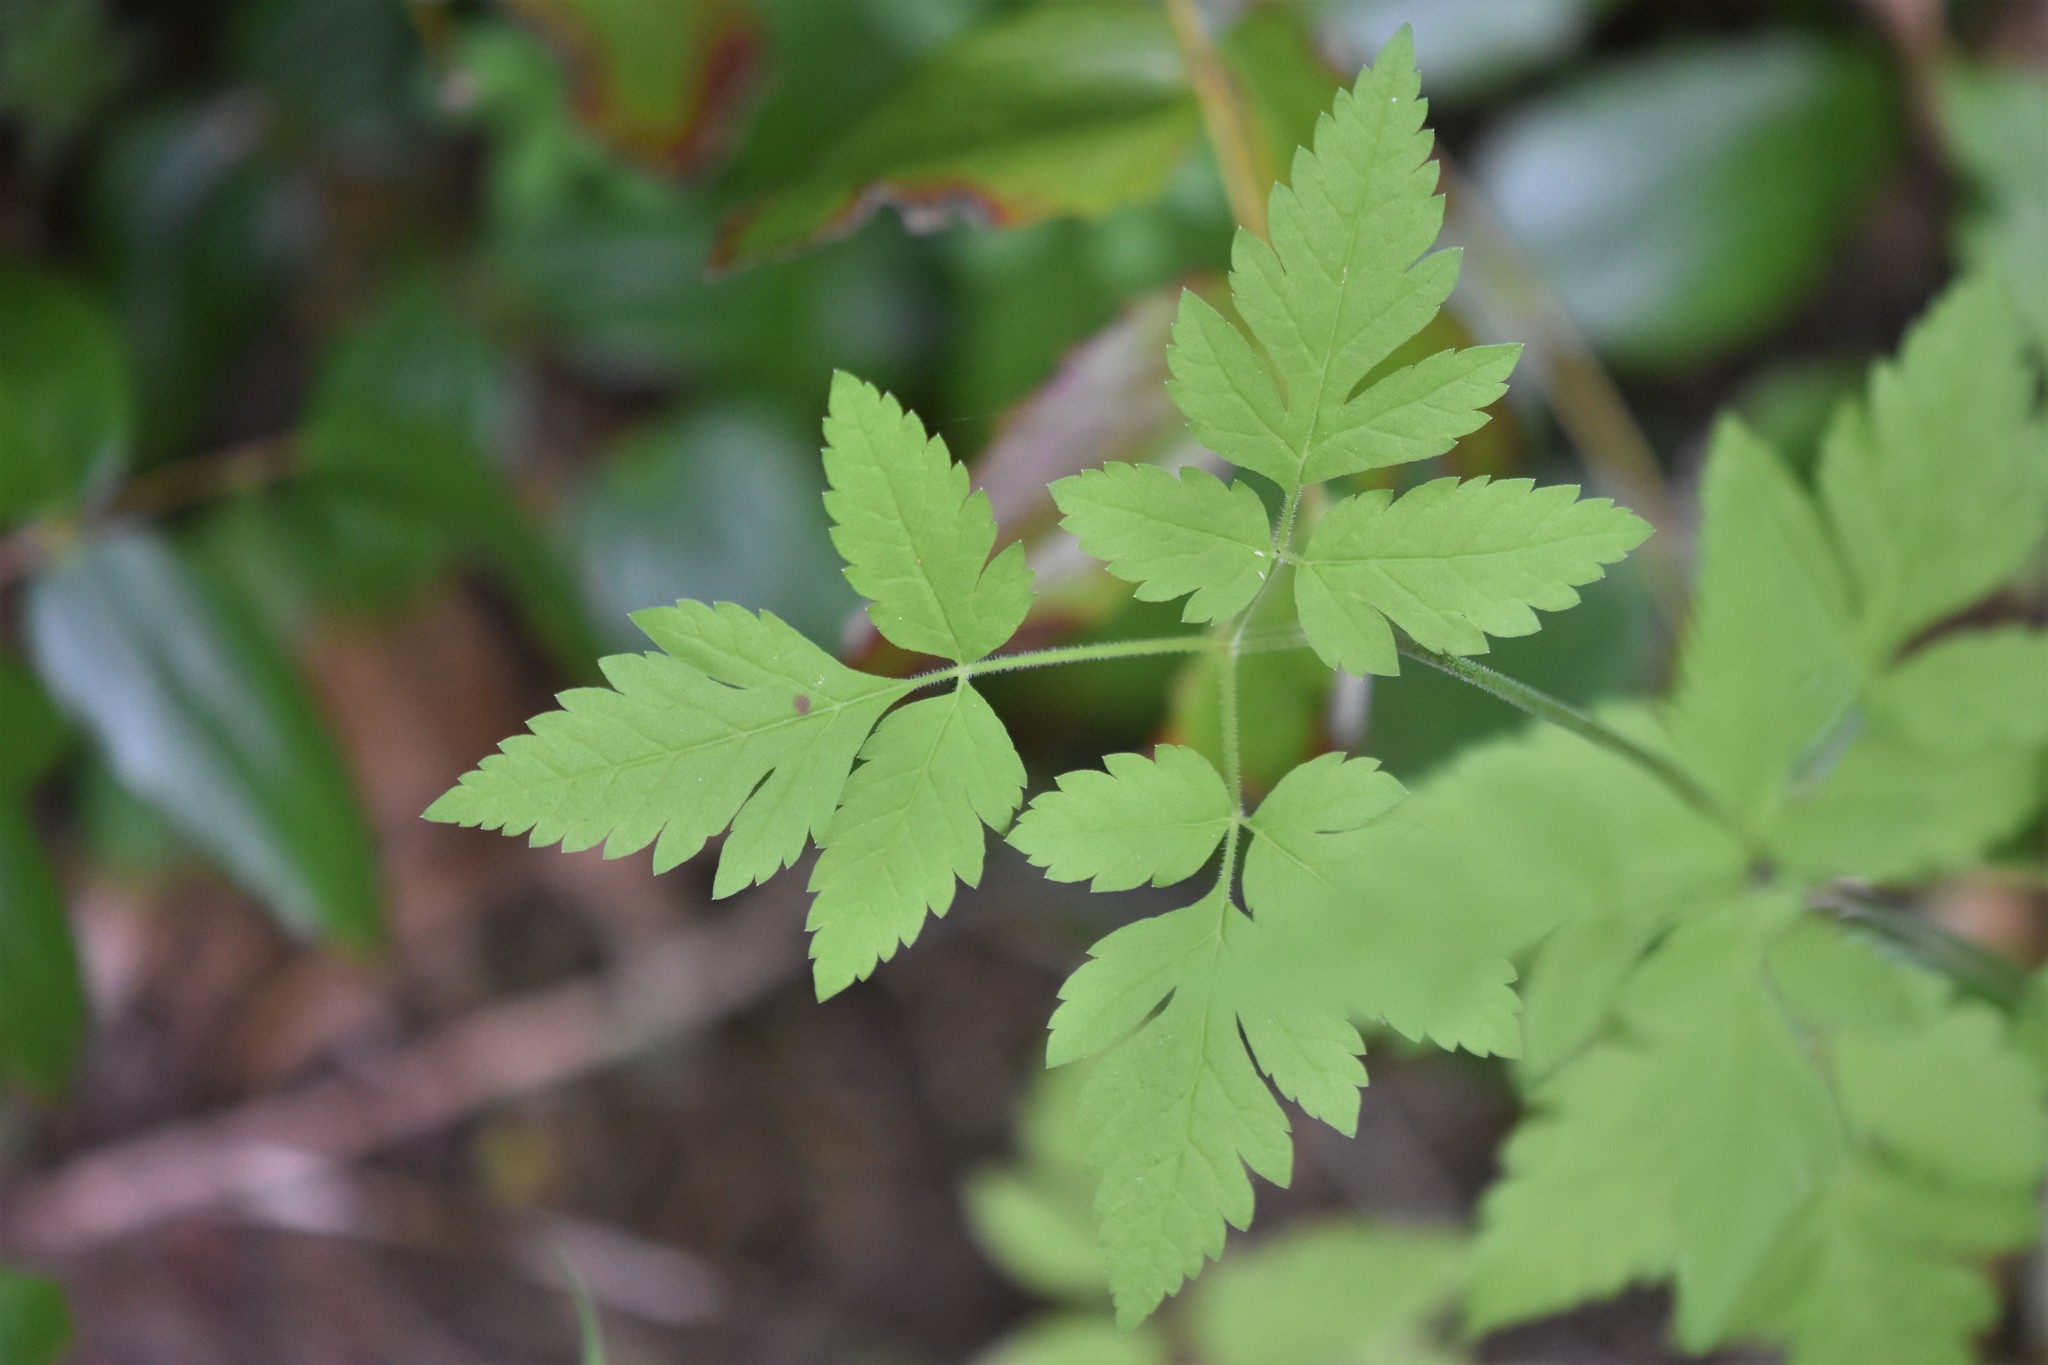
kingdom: Plantae
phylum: Tracheophyta
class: Magnoliopsida
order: Apiales
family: Apiaceae
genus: Osmorhiza
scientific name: Osmorhiza berteroi
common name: Mountain sweet cicely
